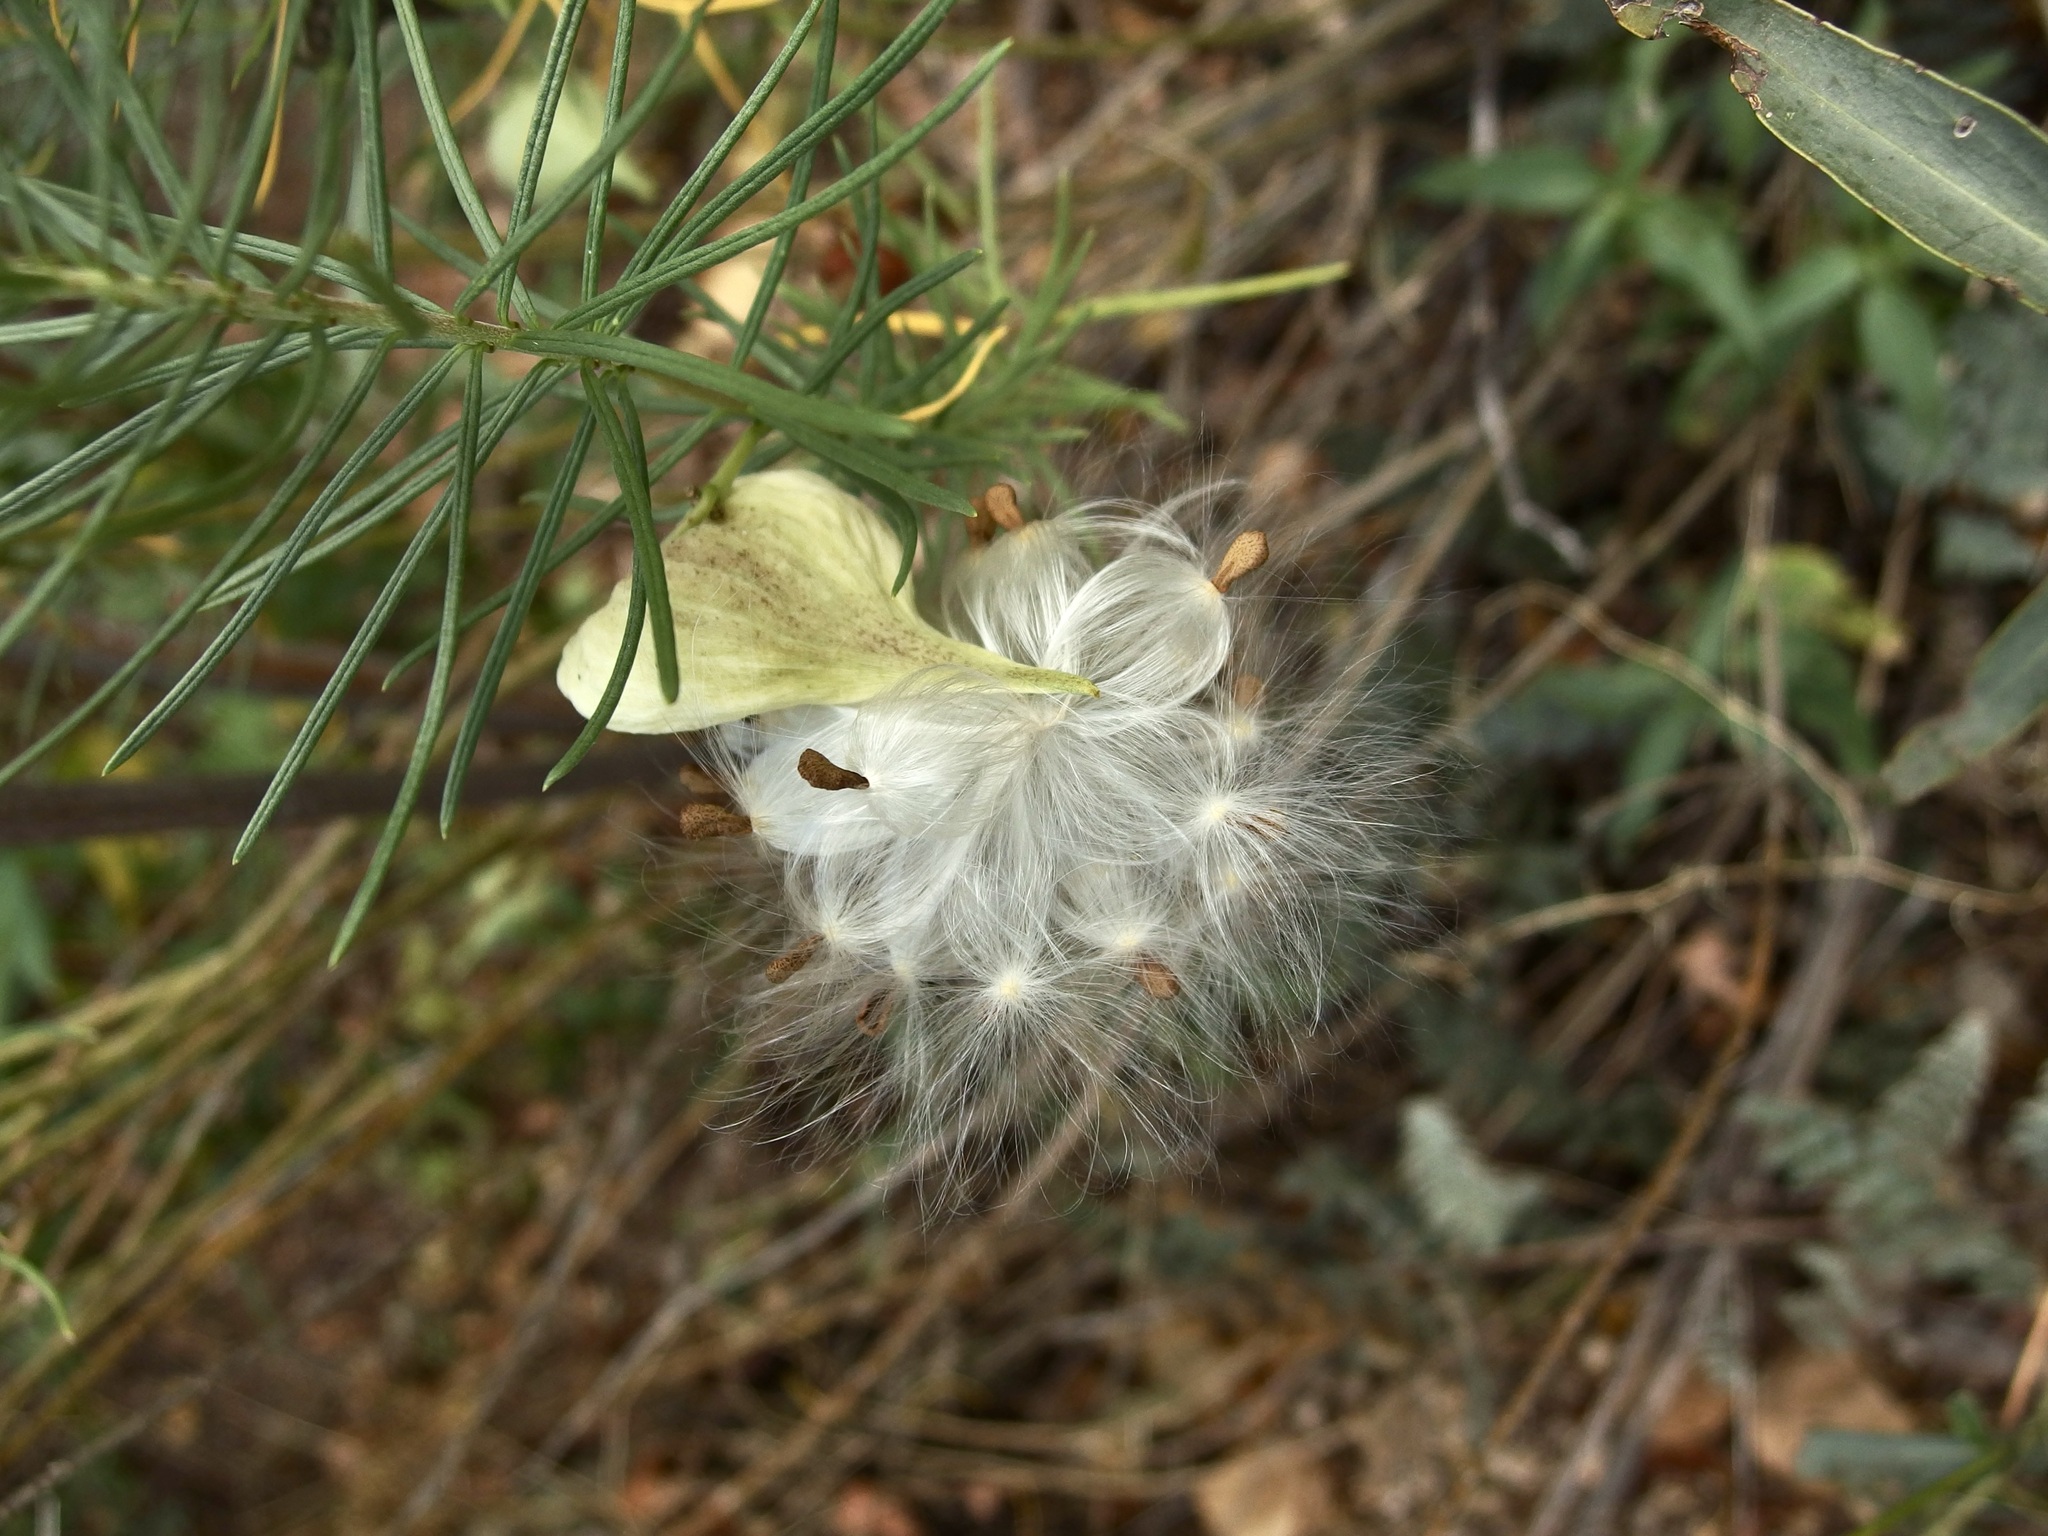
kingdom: Plantae
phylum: Tracheophyta
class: Magnoliopsida
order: Gentianales
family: Apocynaceae
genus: Asclepias
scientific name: Asclepias linaria
